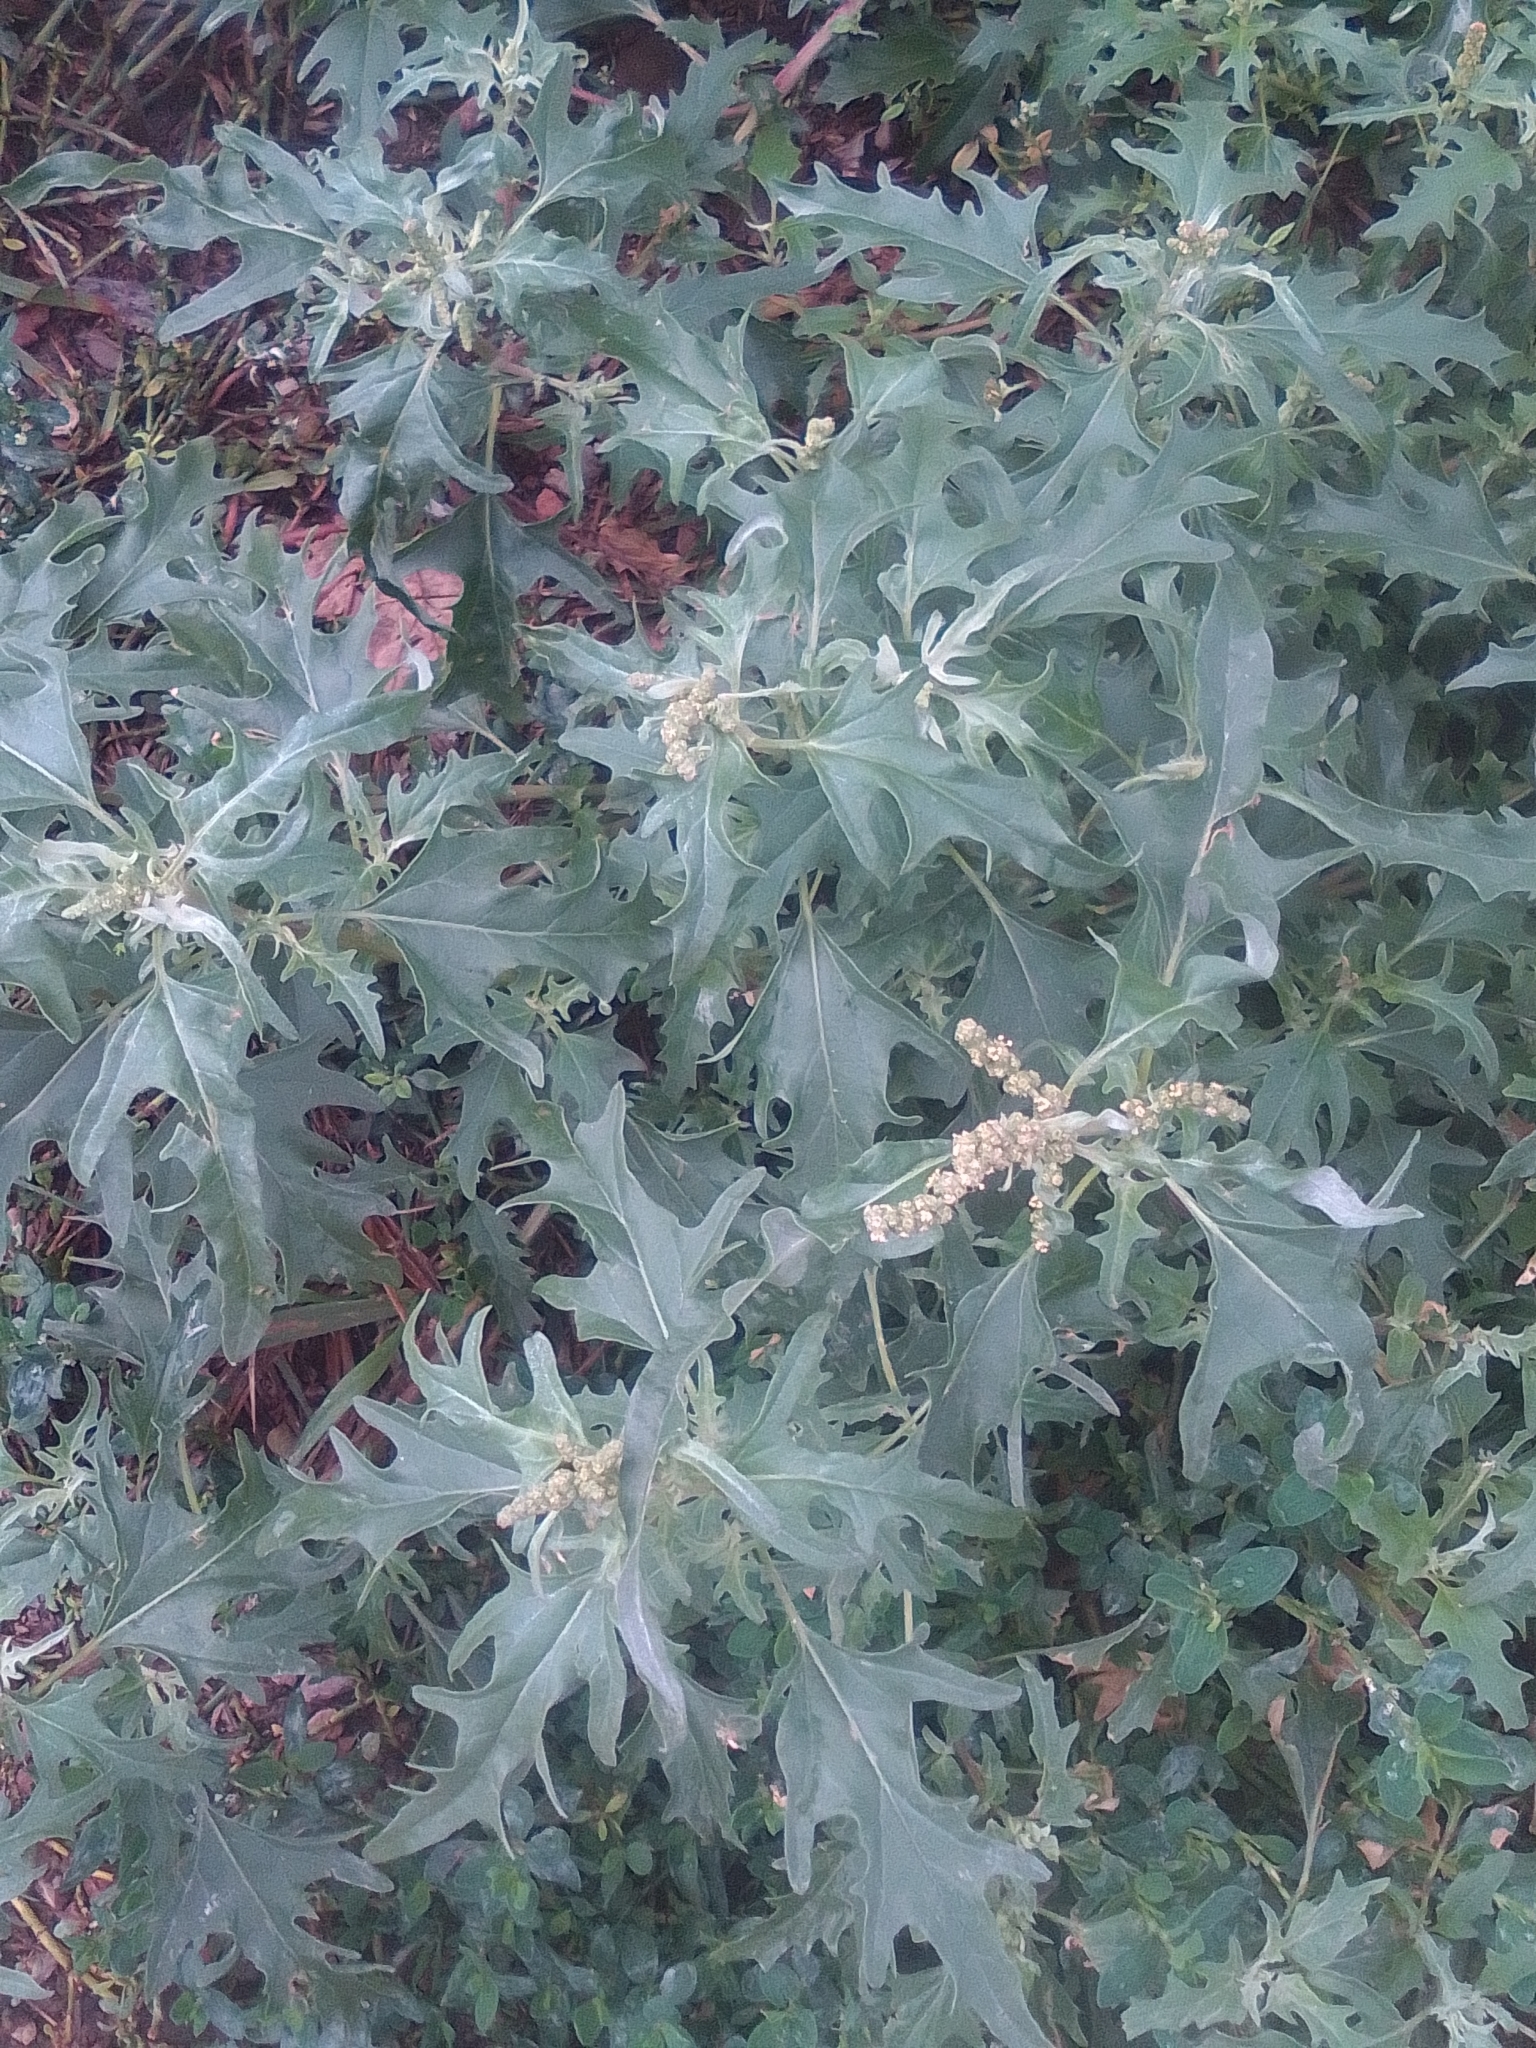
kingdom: Plantae
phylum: Tracheophyta
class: Magnoliopsida
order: Caryophyllales
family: Amaranthaceae
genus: Atriplex
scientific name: Atriplex tatarica
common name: Tatarian orache
